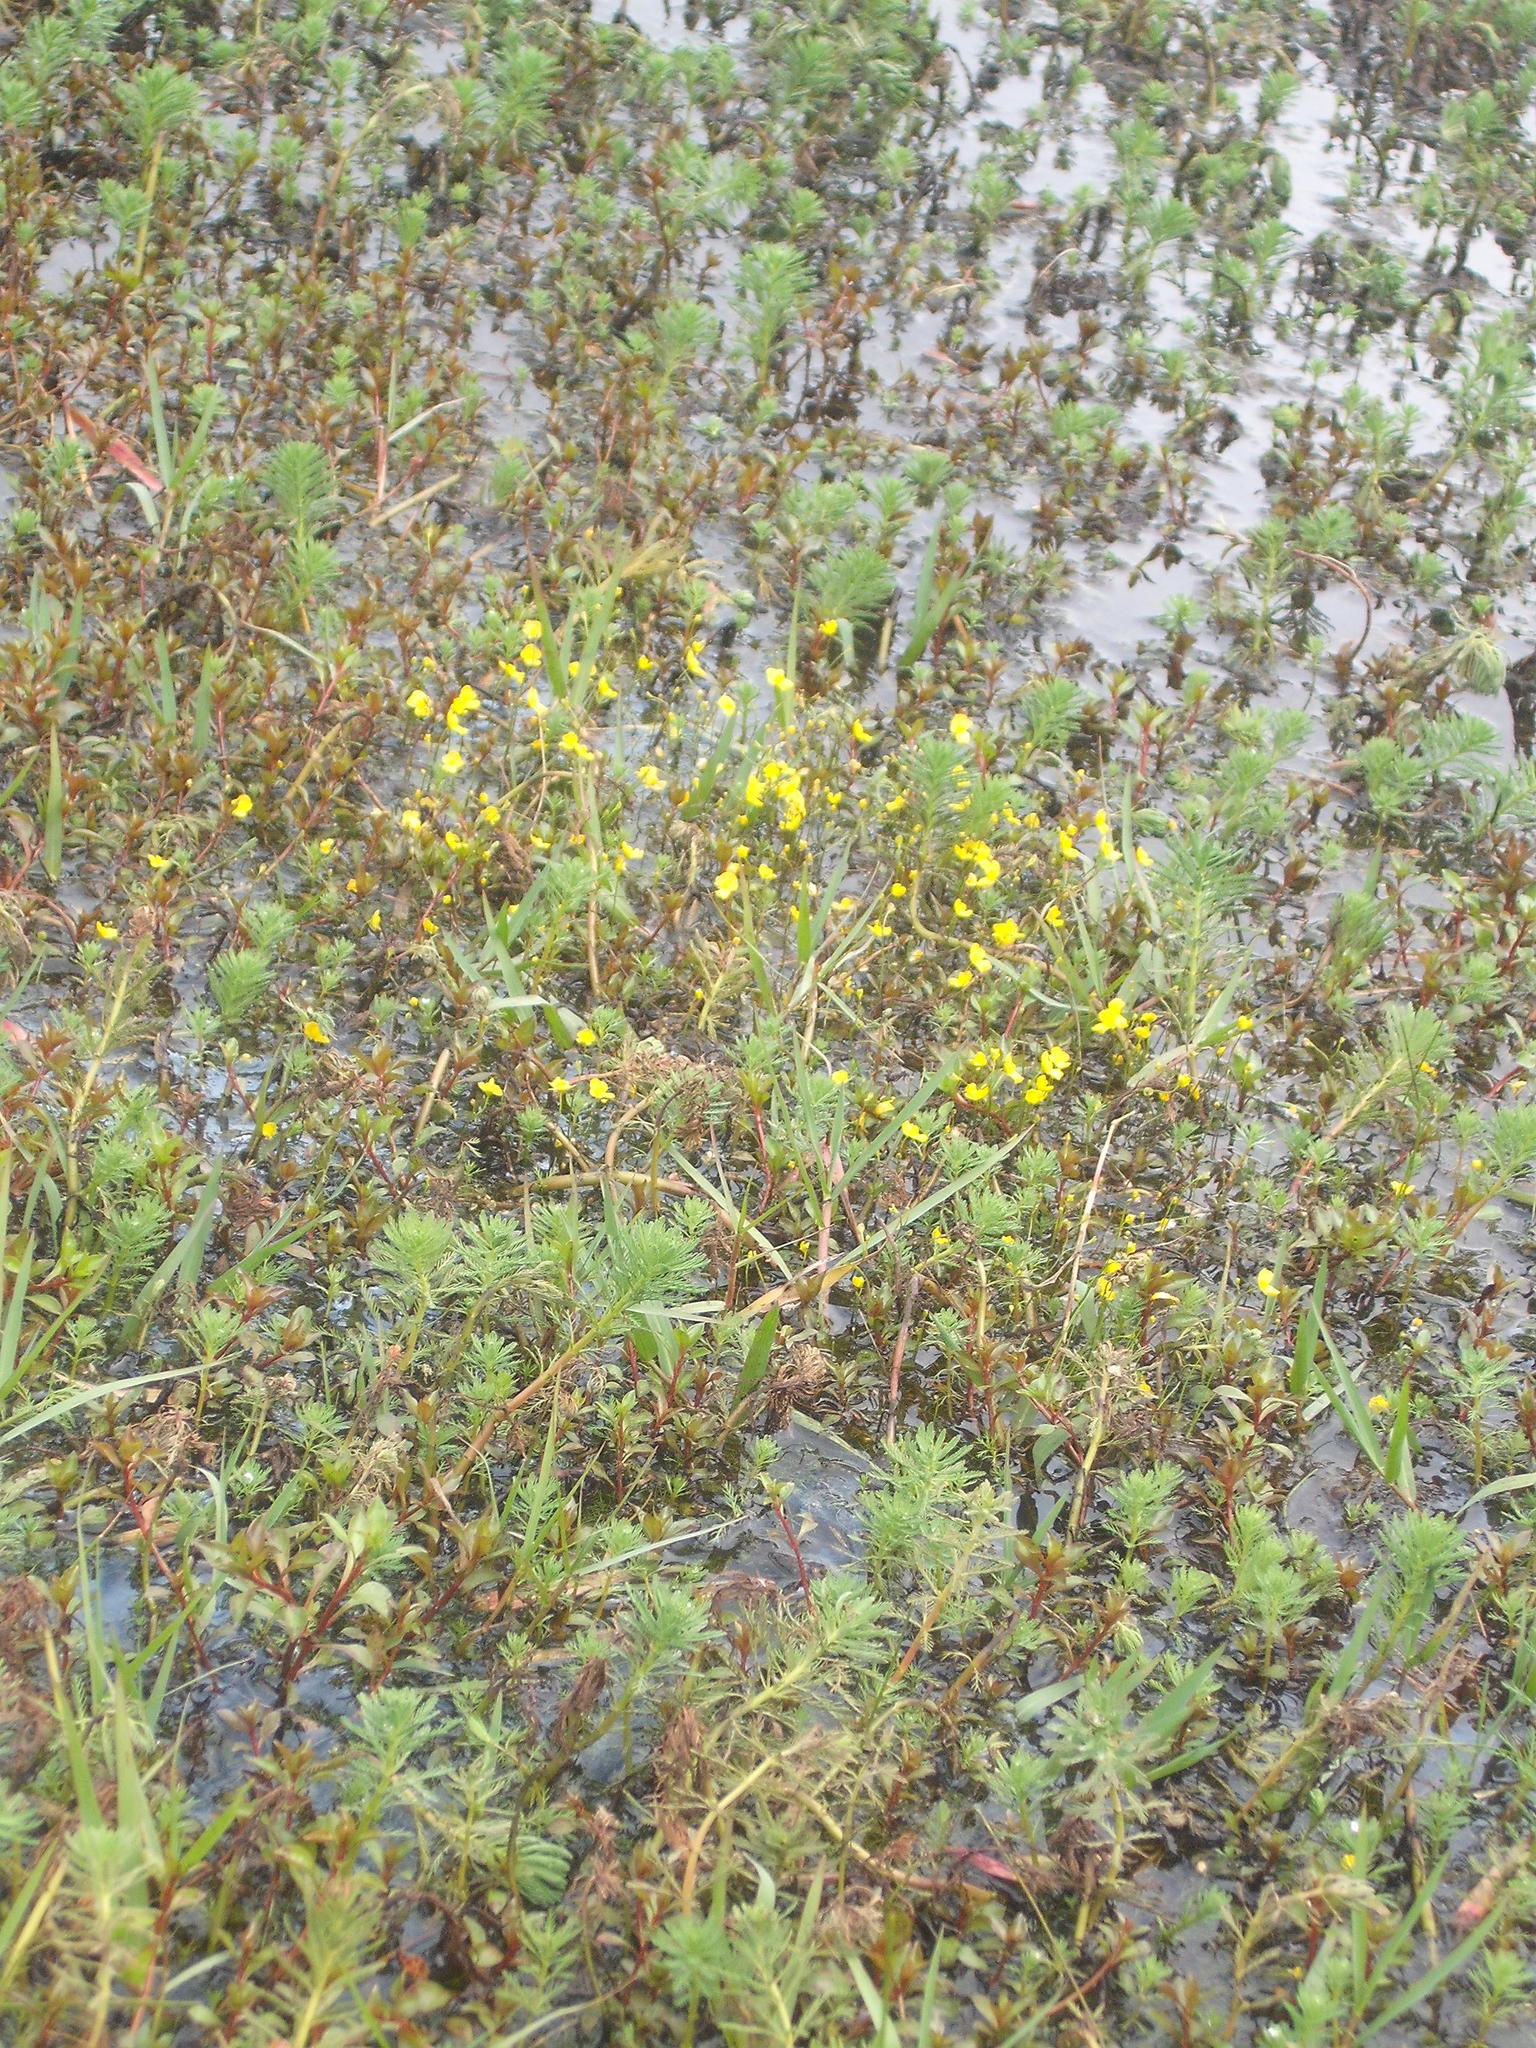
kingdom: Plantae
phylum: Tracheophyta
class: Magnoliopsida
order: Lamiales
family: Lentibulariaceae
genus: Utricularia
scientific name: Utricularia gibba
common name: Humped bladderwort
